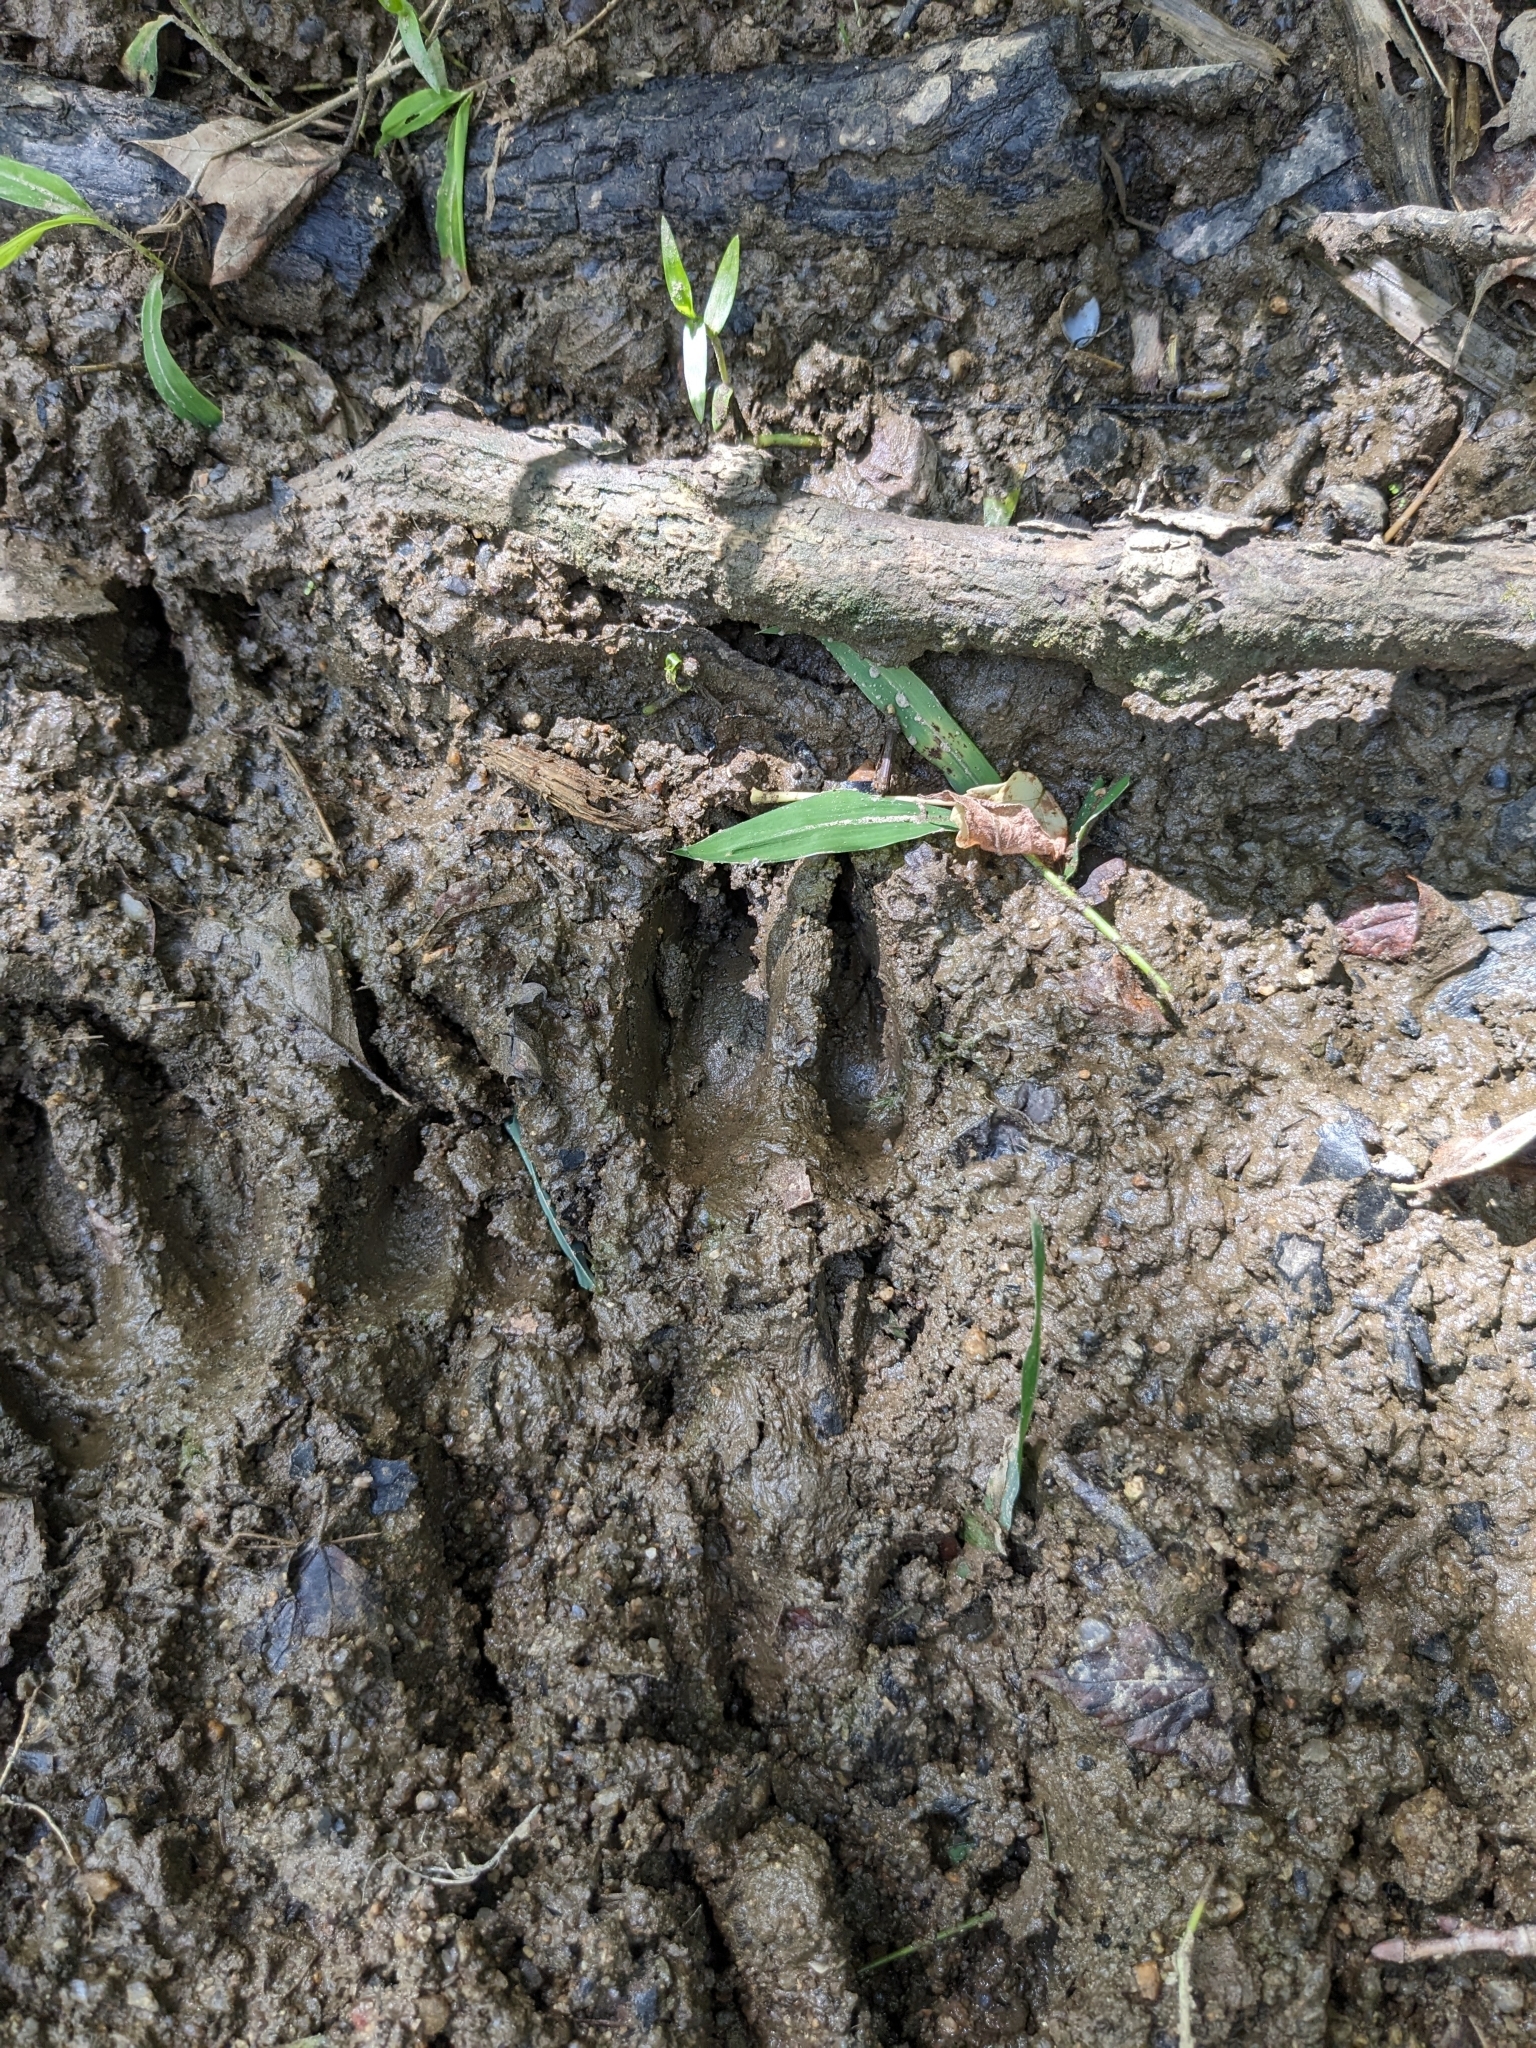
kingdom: Animalia
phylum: Chordata
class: Mammalia
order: Artiodactyla
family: Cervidae
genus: Odocoileus
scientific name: Odocoileus virginianus
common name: White-tailed deer
